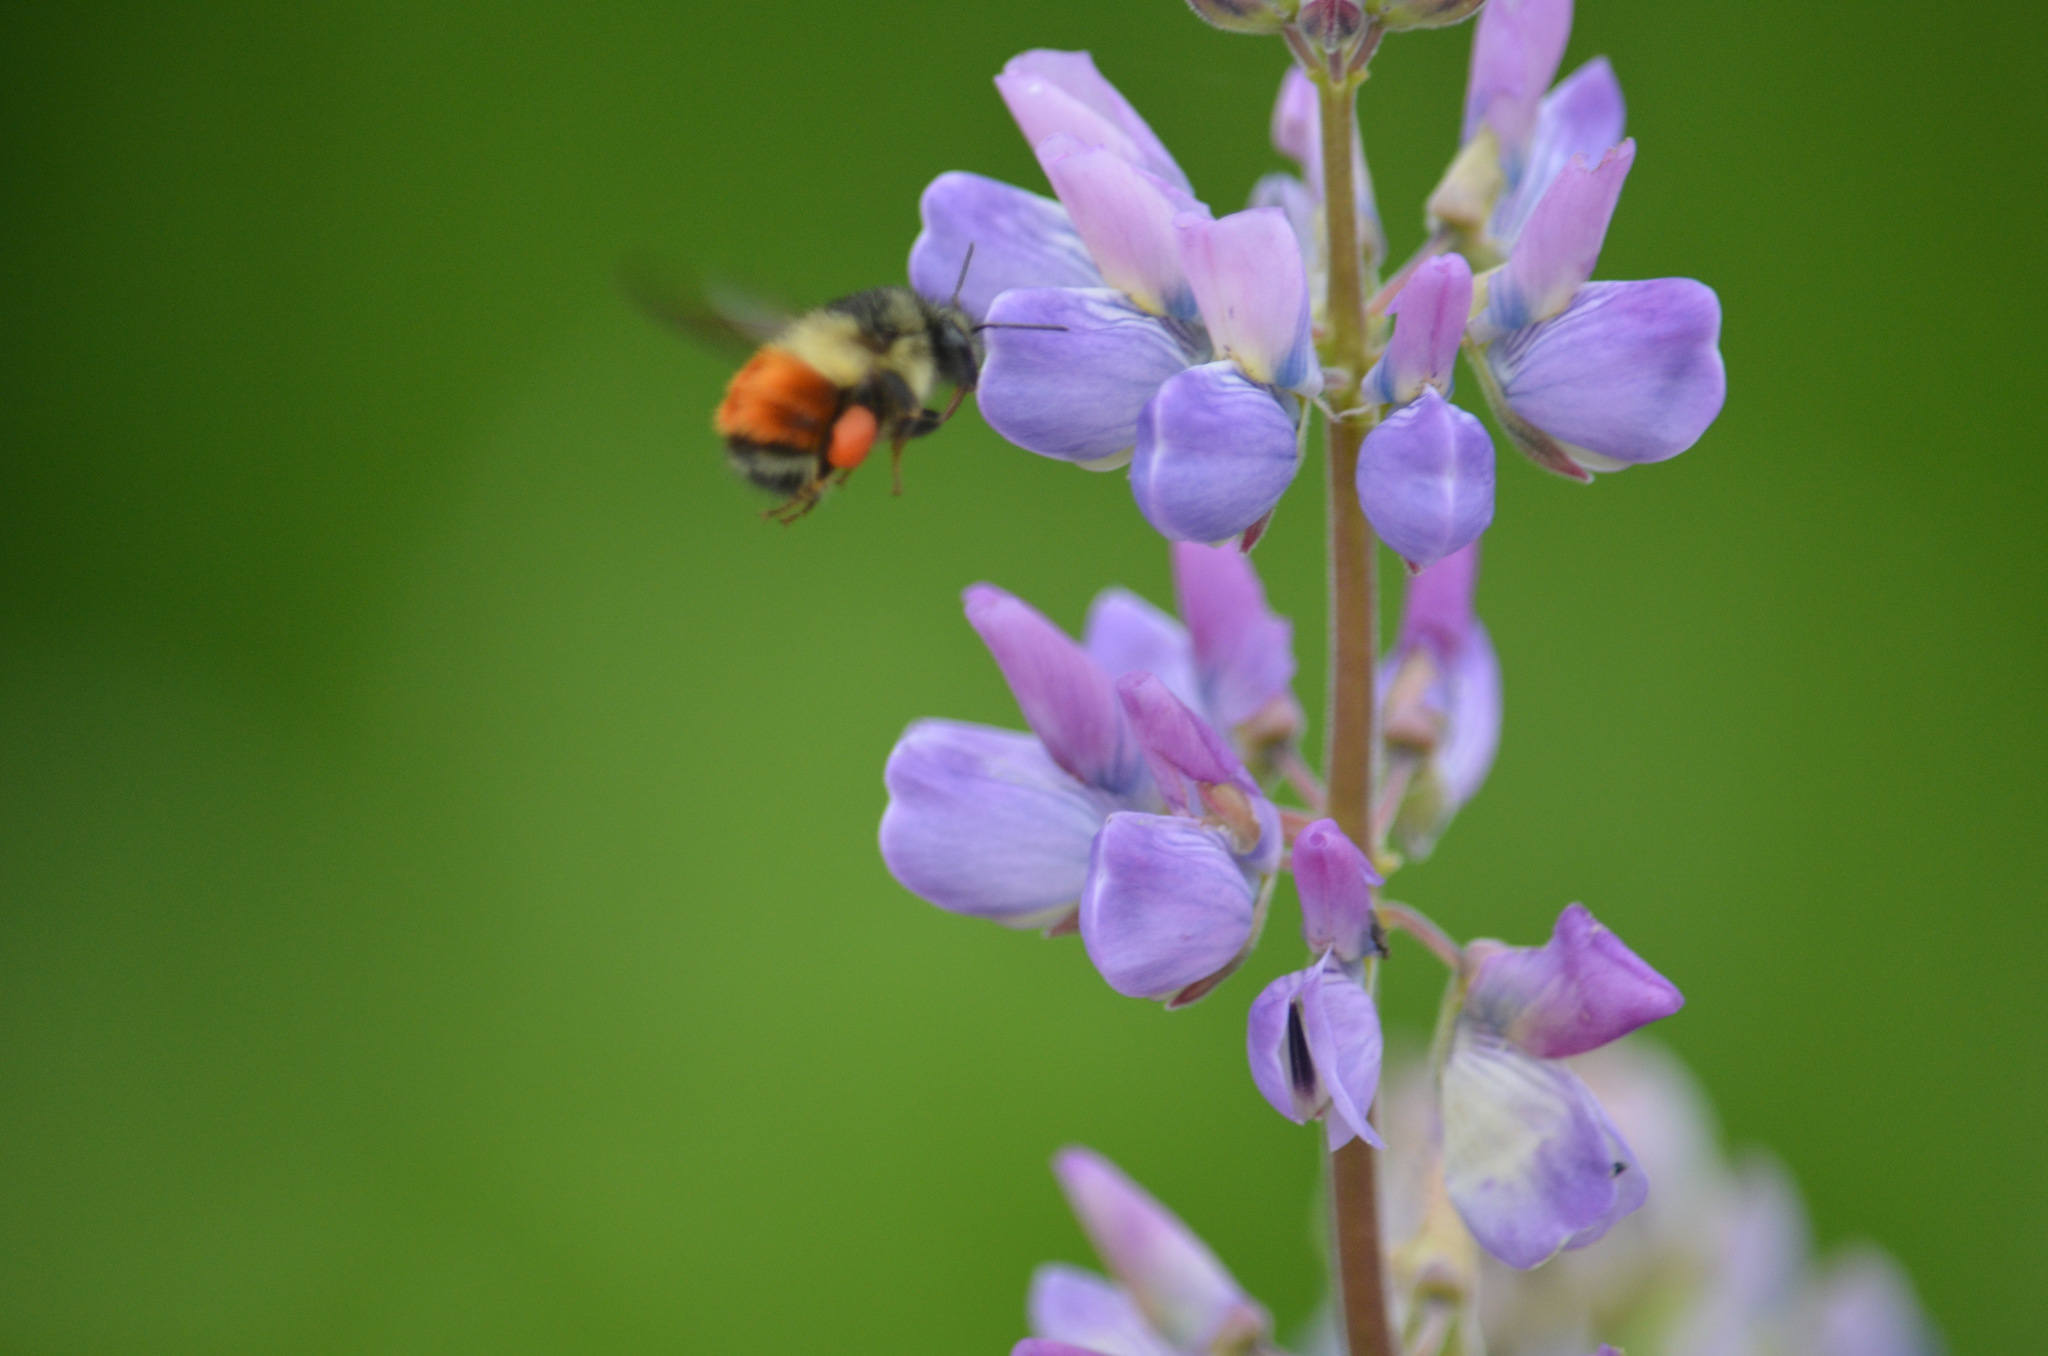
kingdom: Animalia
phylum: Arthropoda
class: Insecta
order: Hymenoptera
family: Apidae
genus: Bombus
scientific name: Bombus melanopygus
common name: Black tail bumble bee
